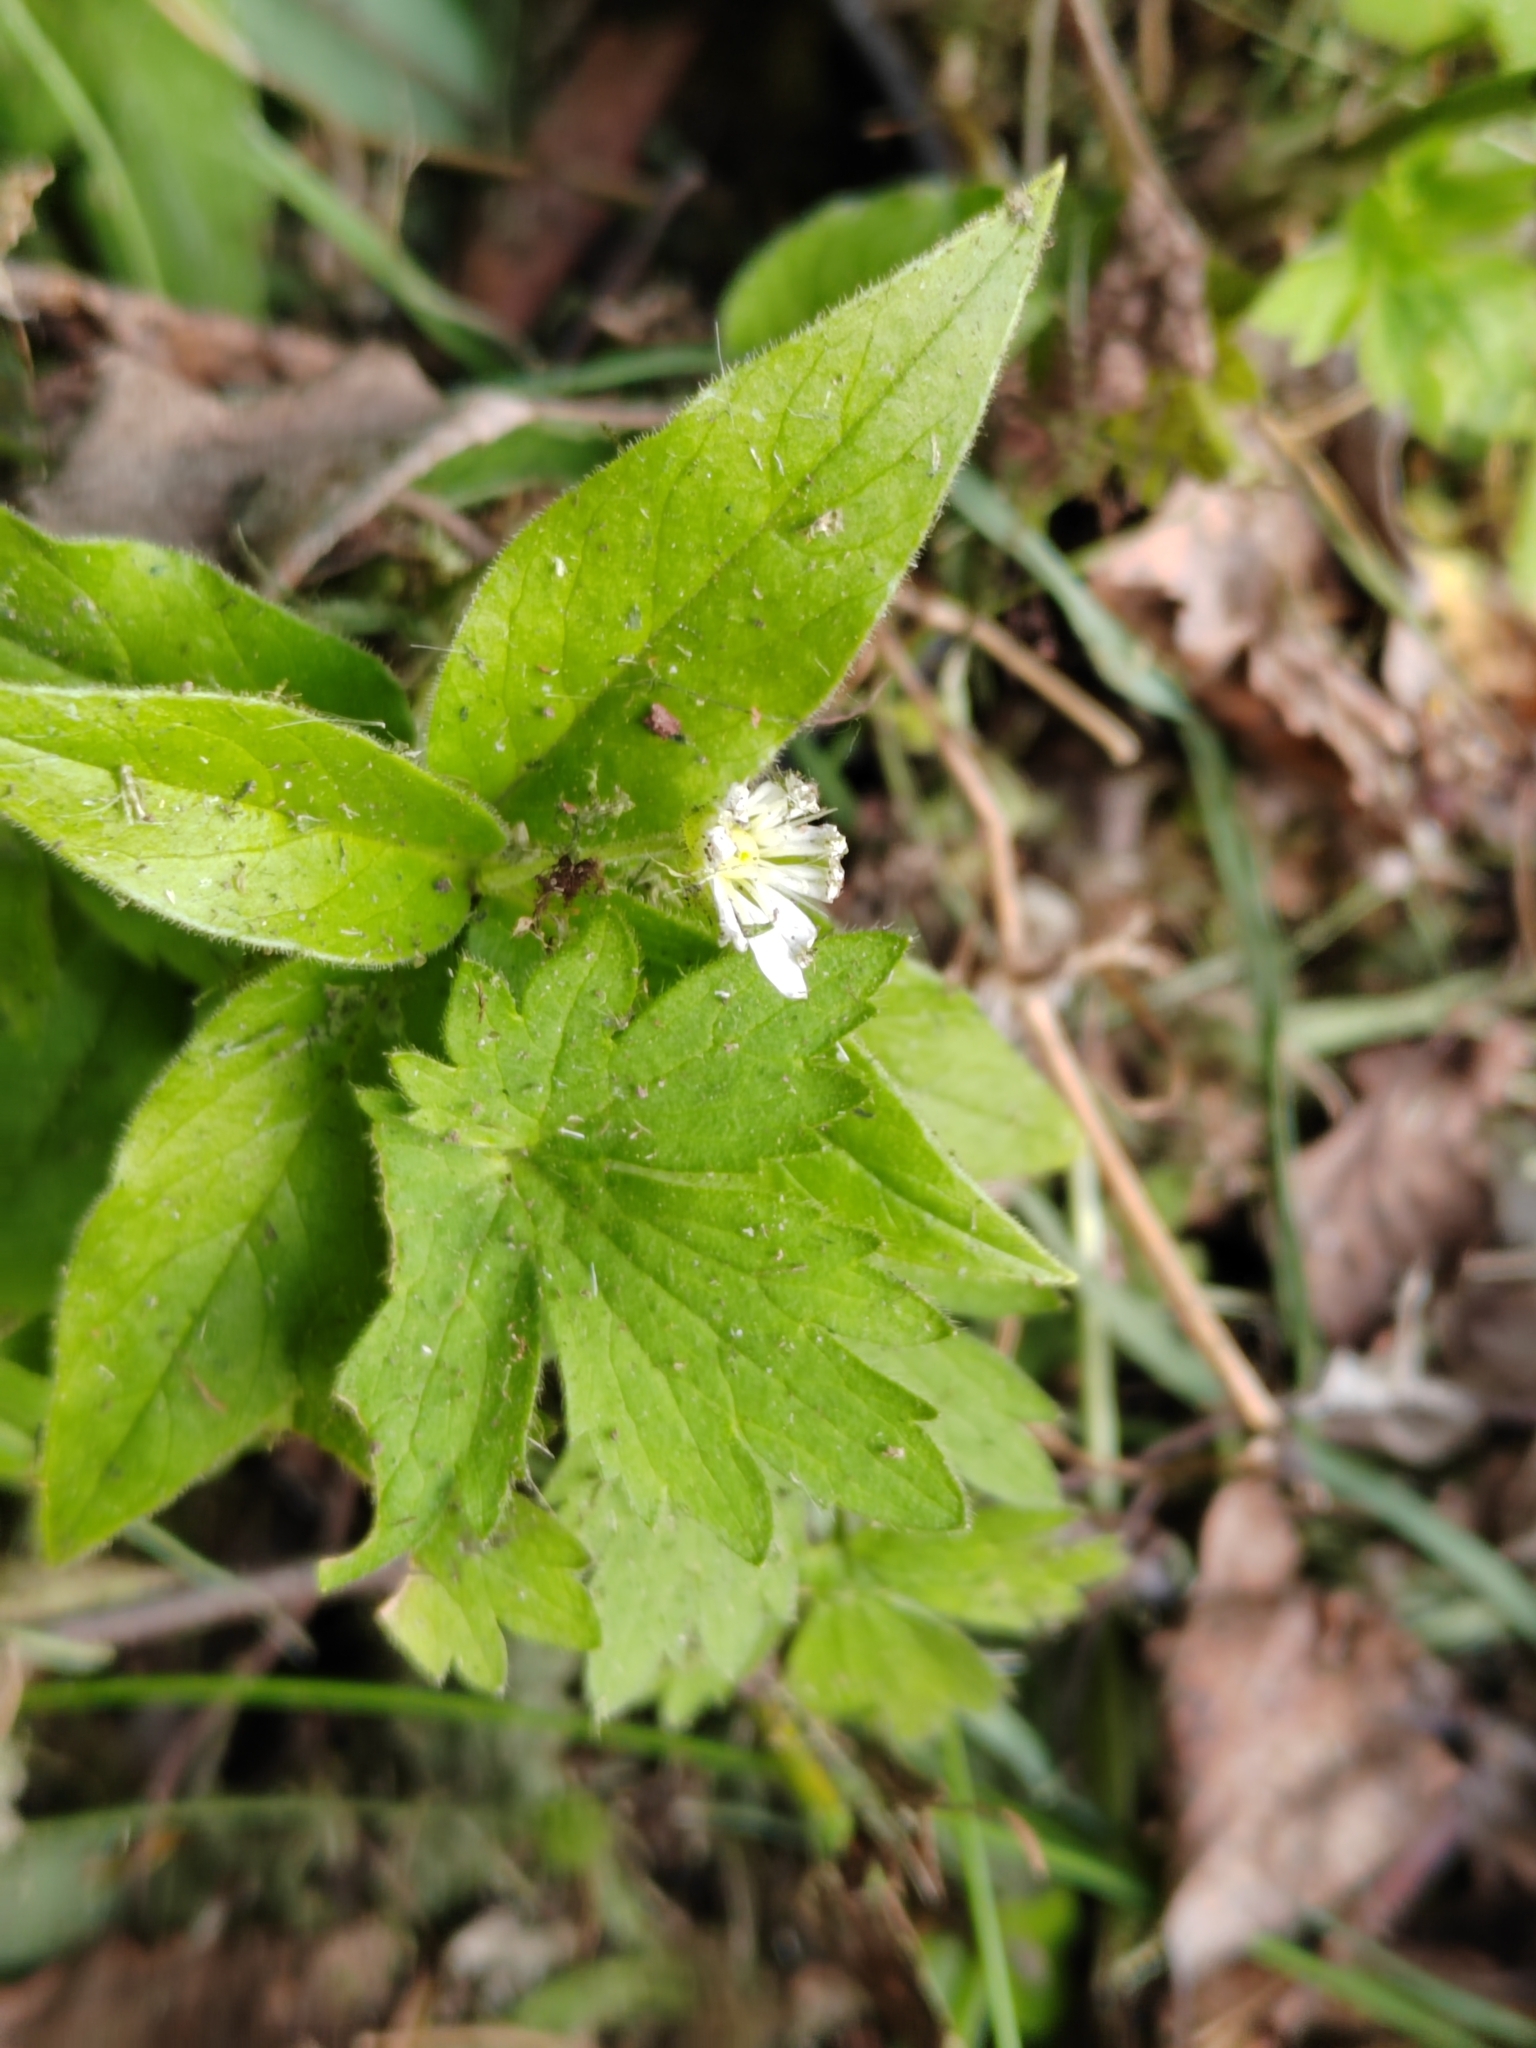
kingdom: Plantae
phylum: Tracheophyta
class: Magnoliopsida
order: Caryophyllales
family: Caryophyllaceae
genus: Stellaria
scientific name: Stellaria bungeana
